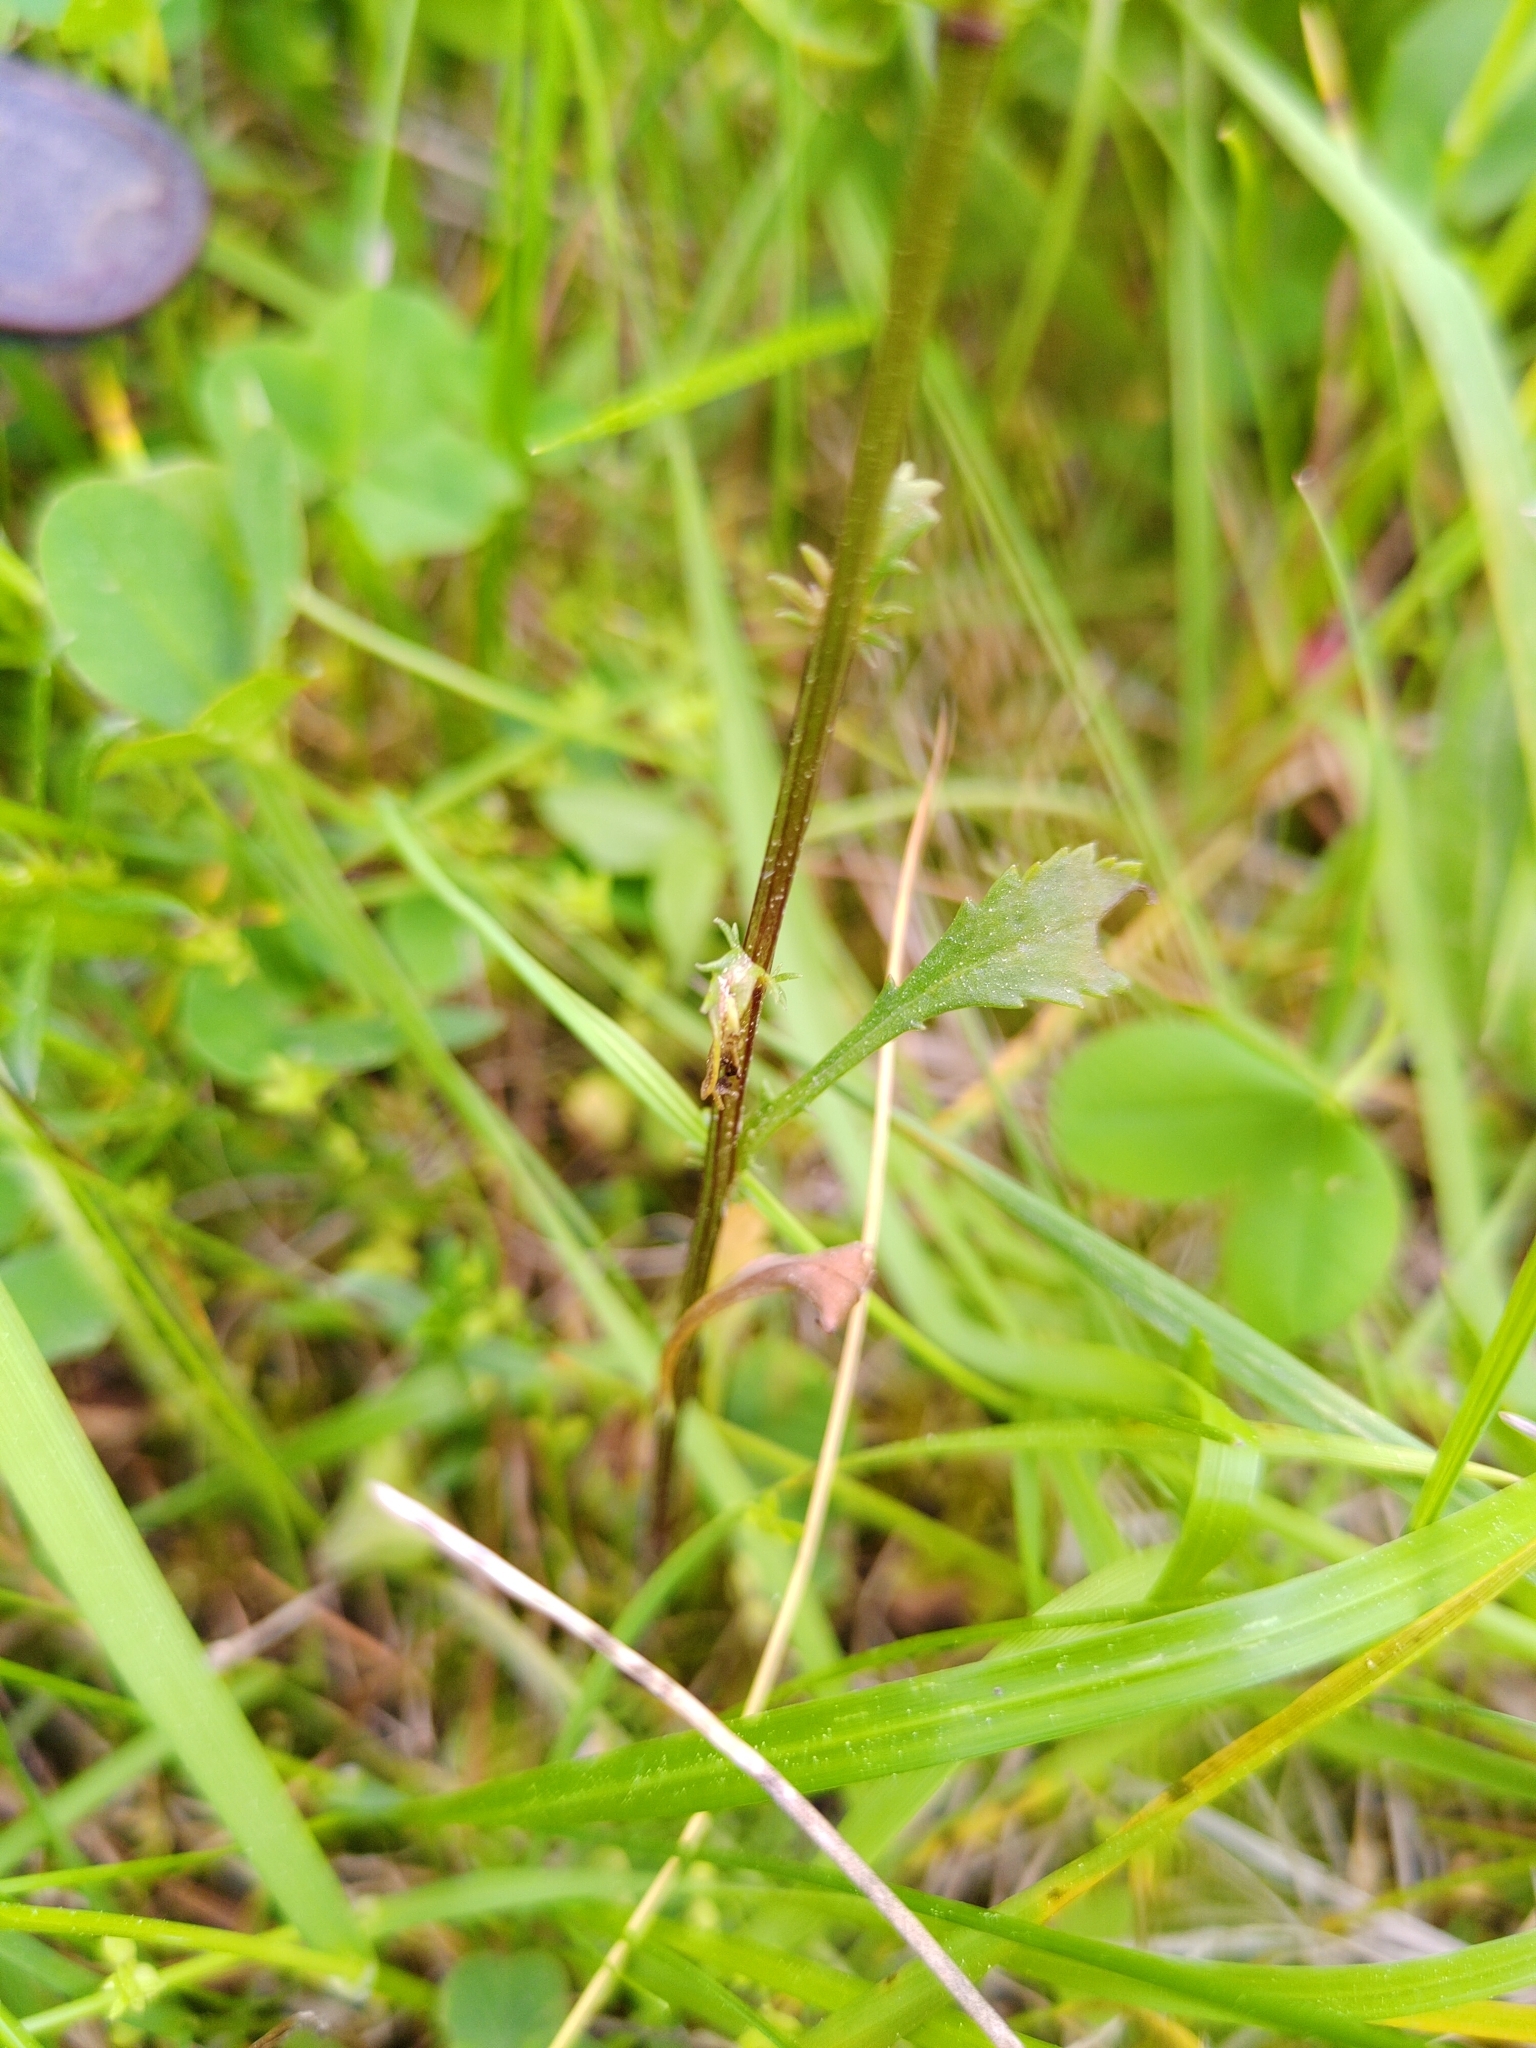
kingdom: Plantae
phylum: Tracheophyta
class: Magnoliopsida
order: Asterales
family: Asteraceae
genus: Leucanthemum
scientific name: Leucanthemum vulgare
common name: Oxeye daisy
